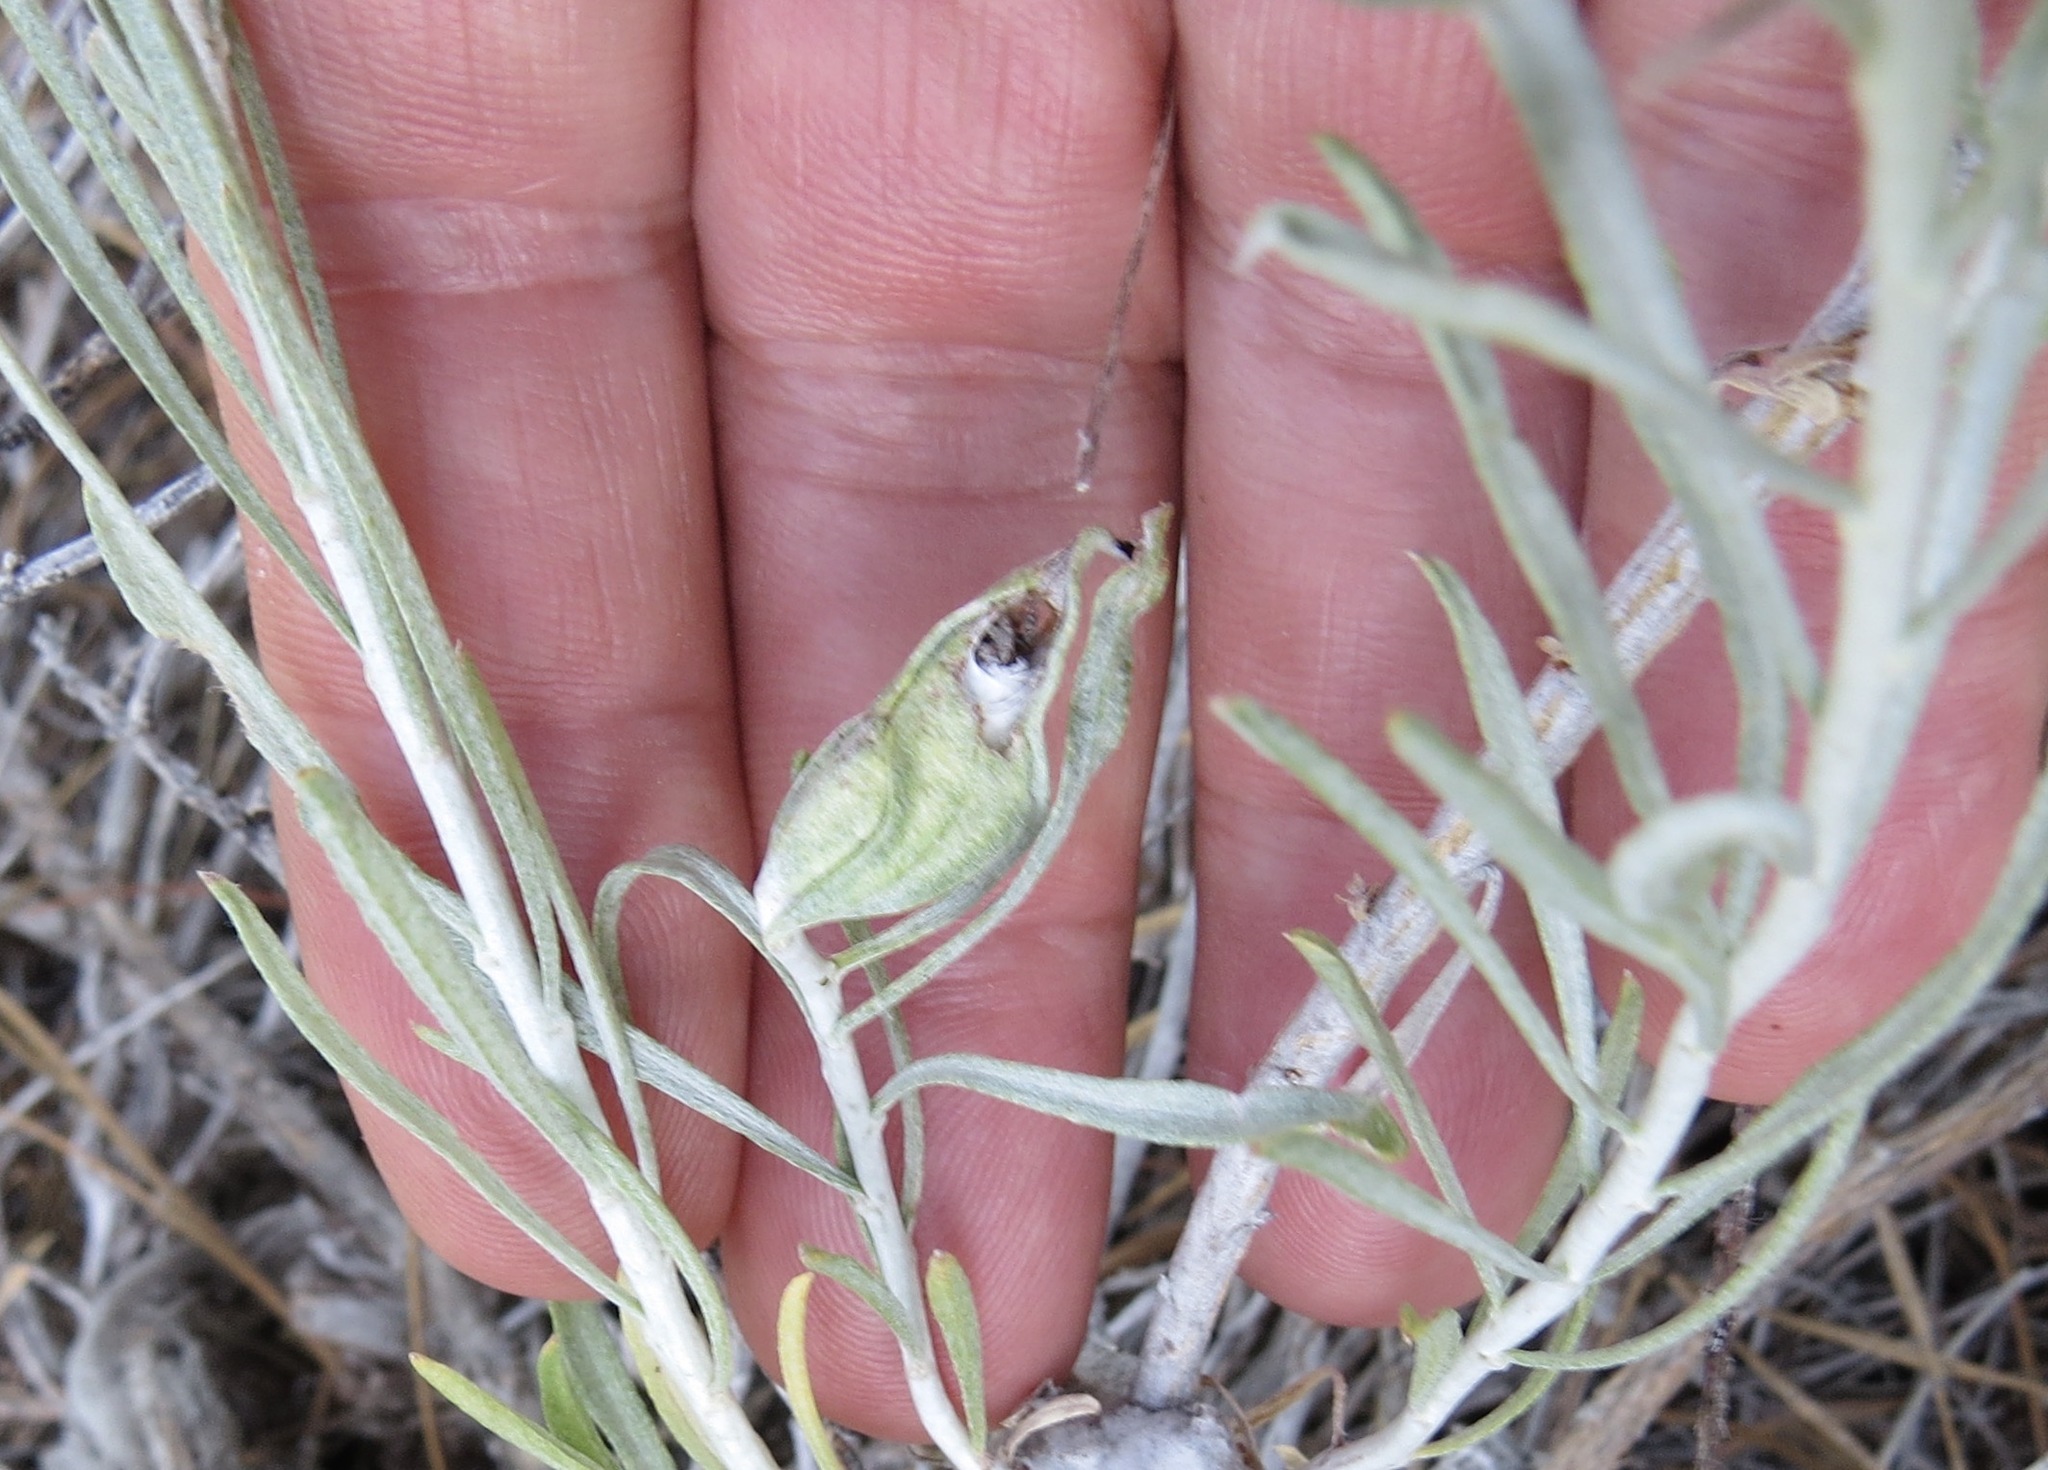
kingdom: Animalia
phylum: Arthropoda
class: Insecta
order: Lepidoptera
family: Gelechiidae
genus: Gnorimoschema
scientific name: Gnorimoschema octomaculella
